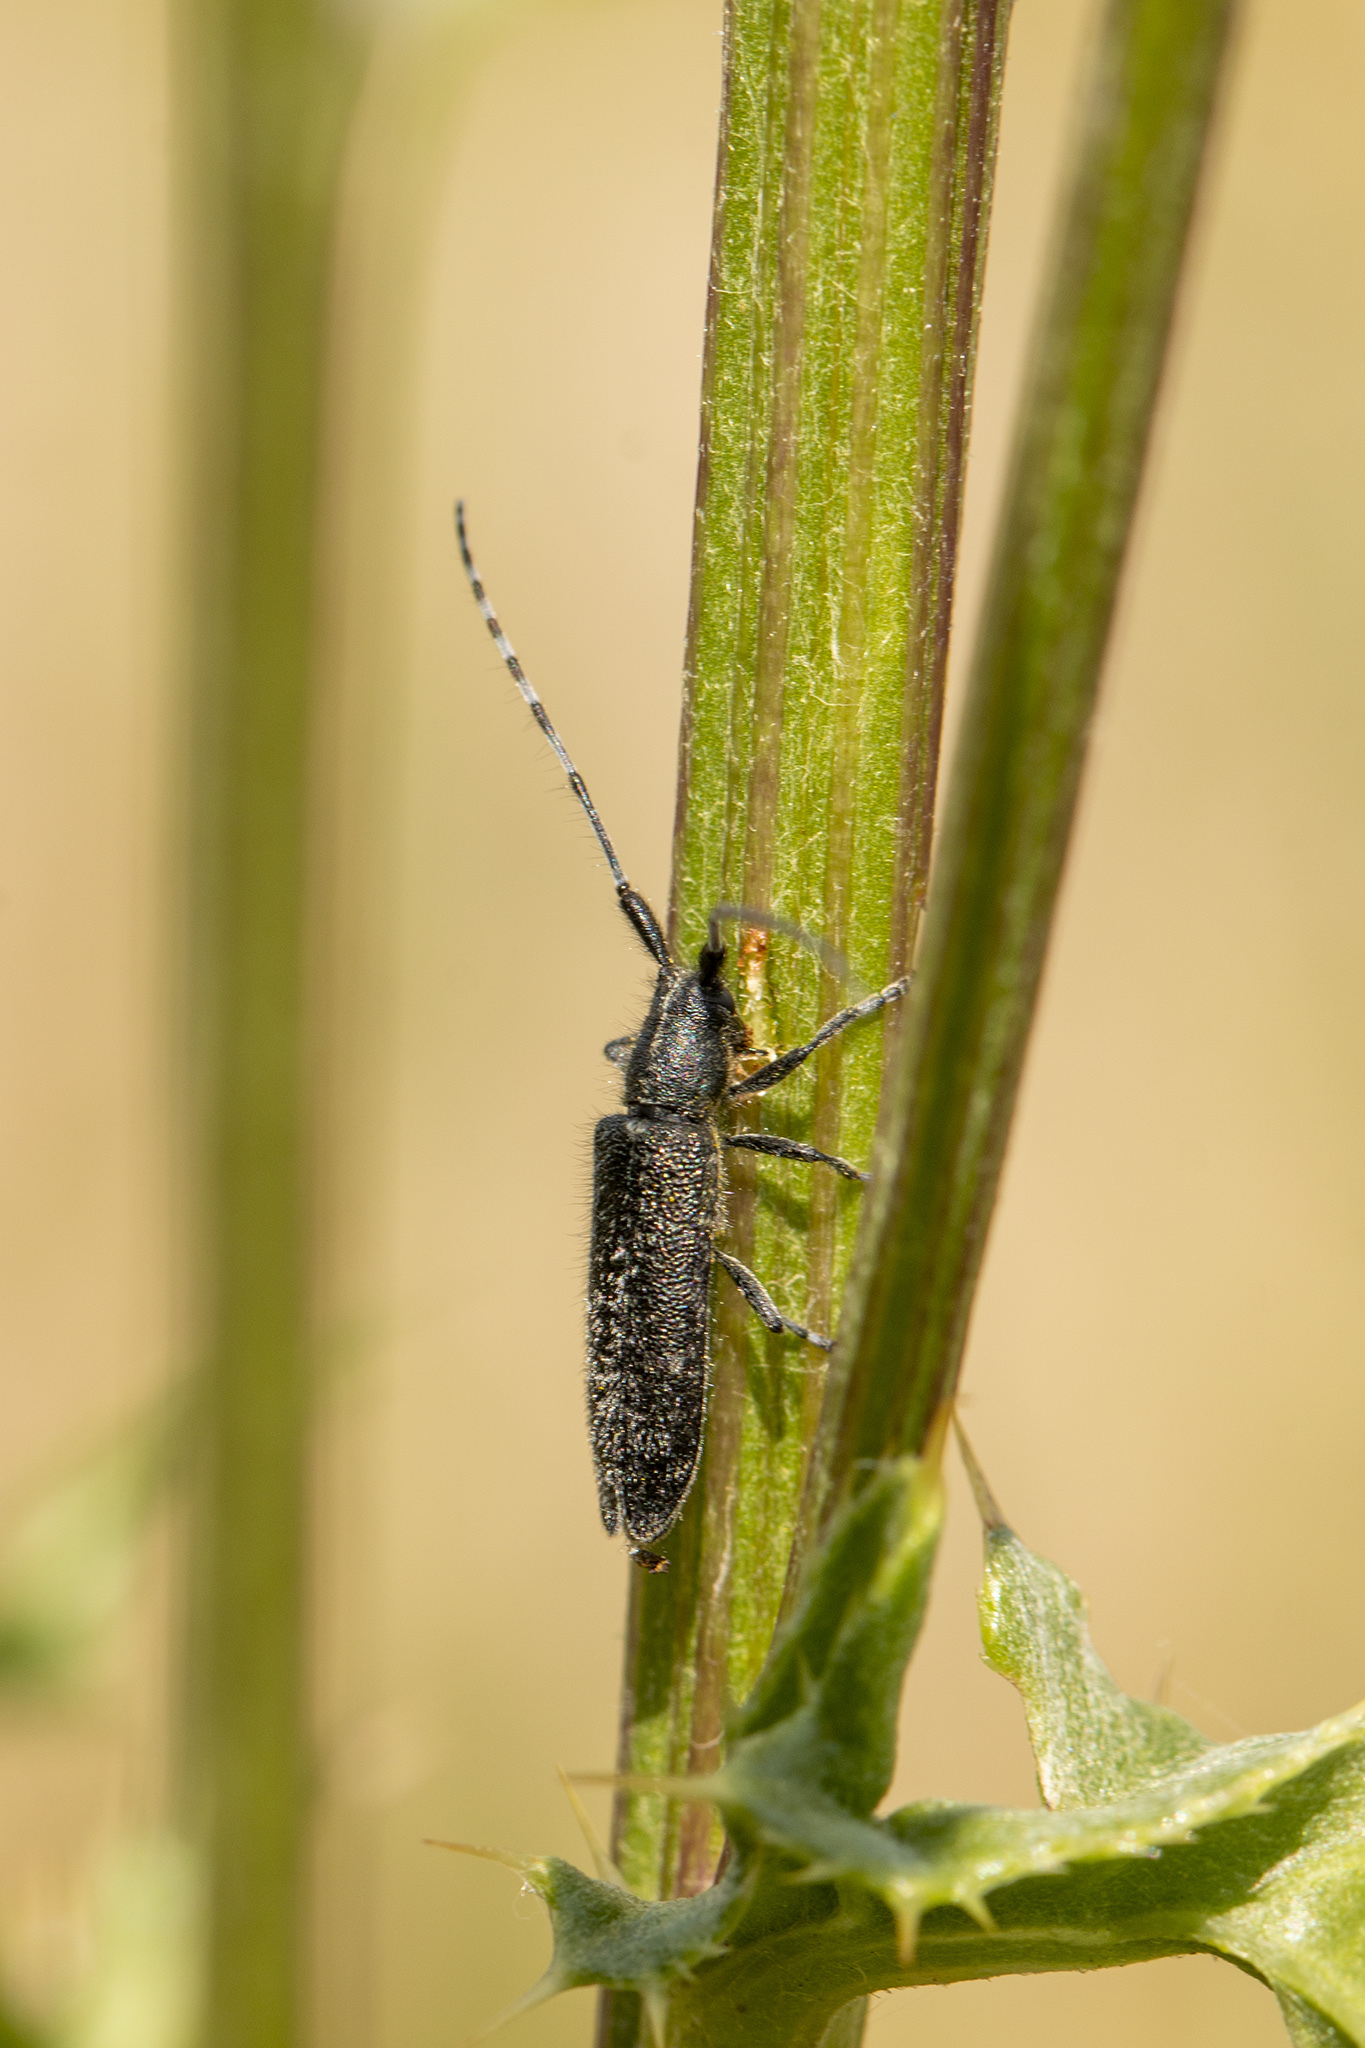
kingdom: Animalia
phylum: Arthropoda
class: Insecta
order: Coleoptera
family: Cerambycidae
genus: Agapanthia
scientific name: Agapanthia villosoviridescens
